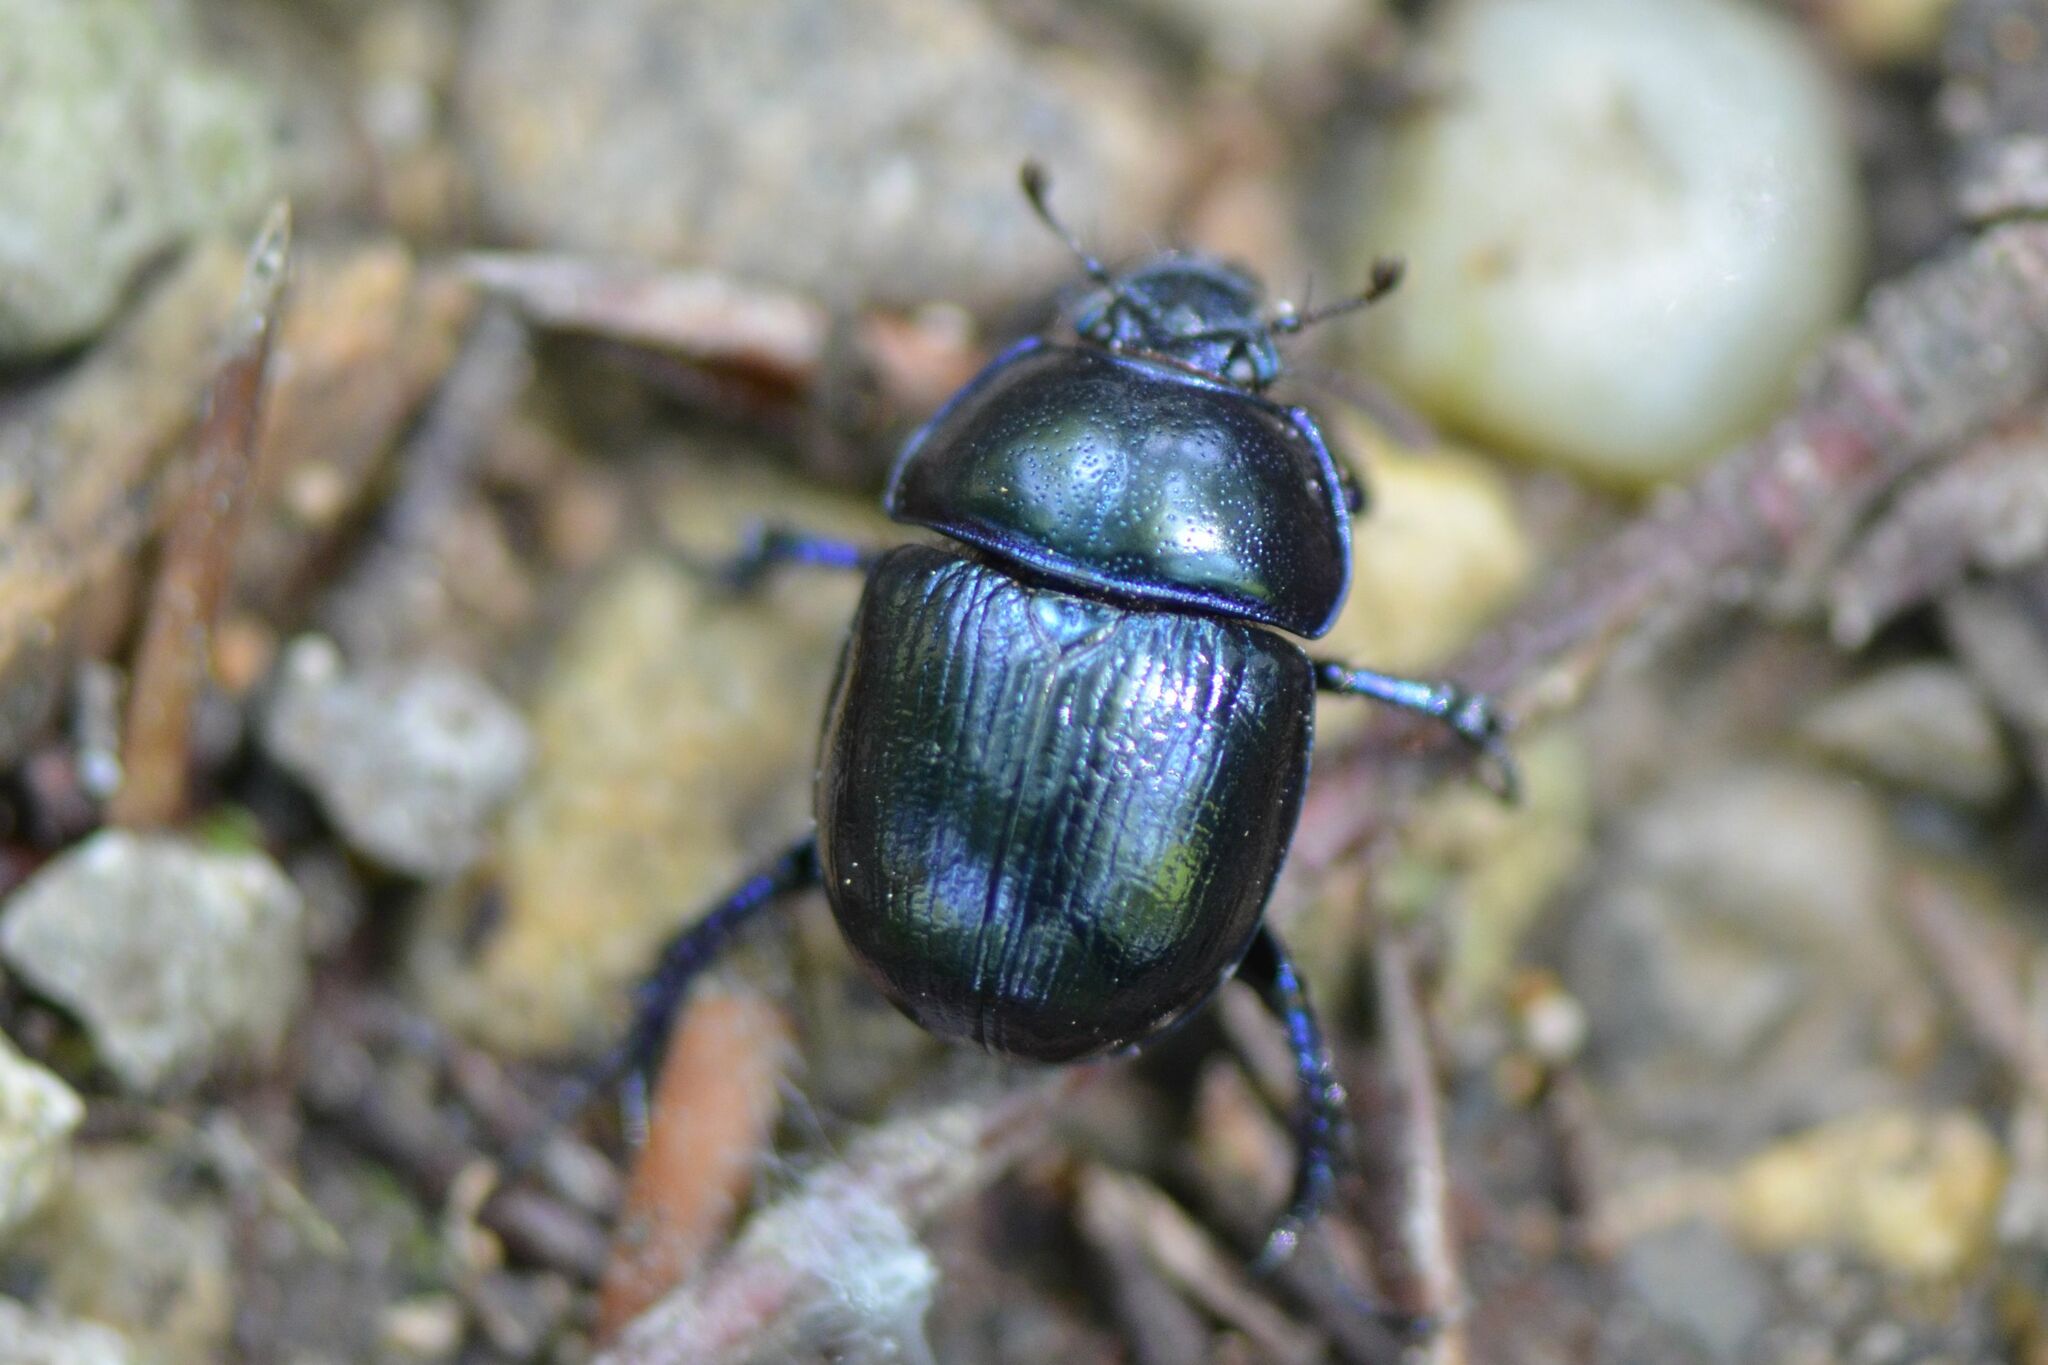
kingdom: Animalia
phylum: Arthropoda
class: Insecta
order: Coleoptera
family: Geotrupidae
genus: Anoplotrupes
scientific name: Anoplotrupes stercorosus
